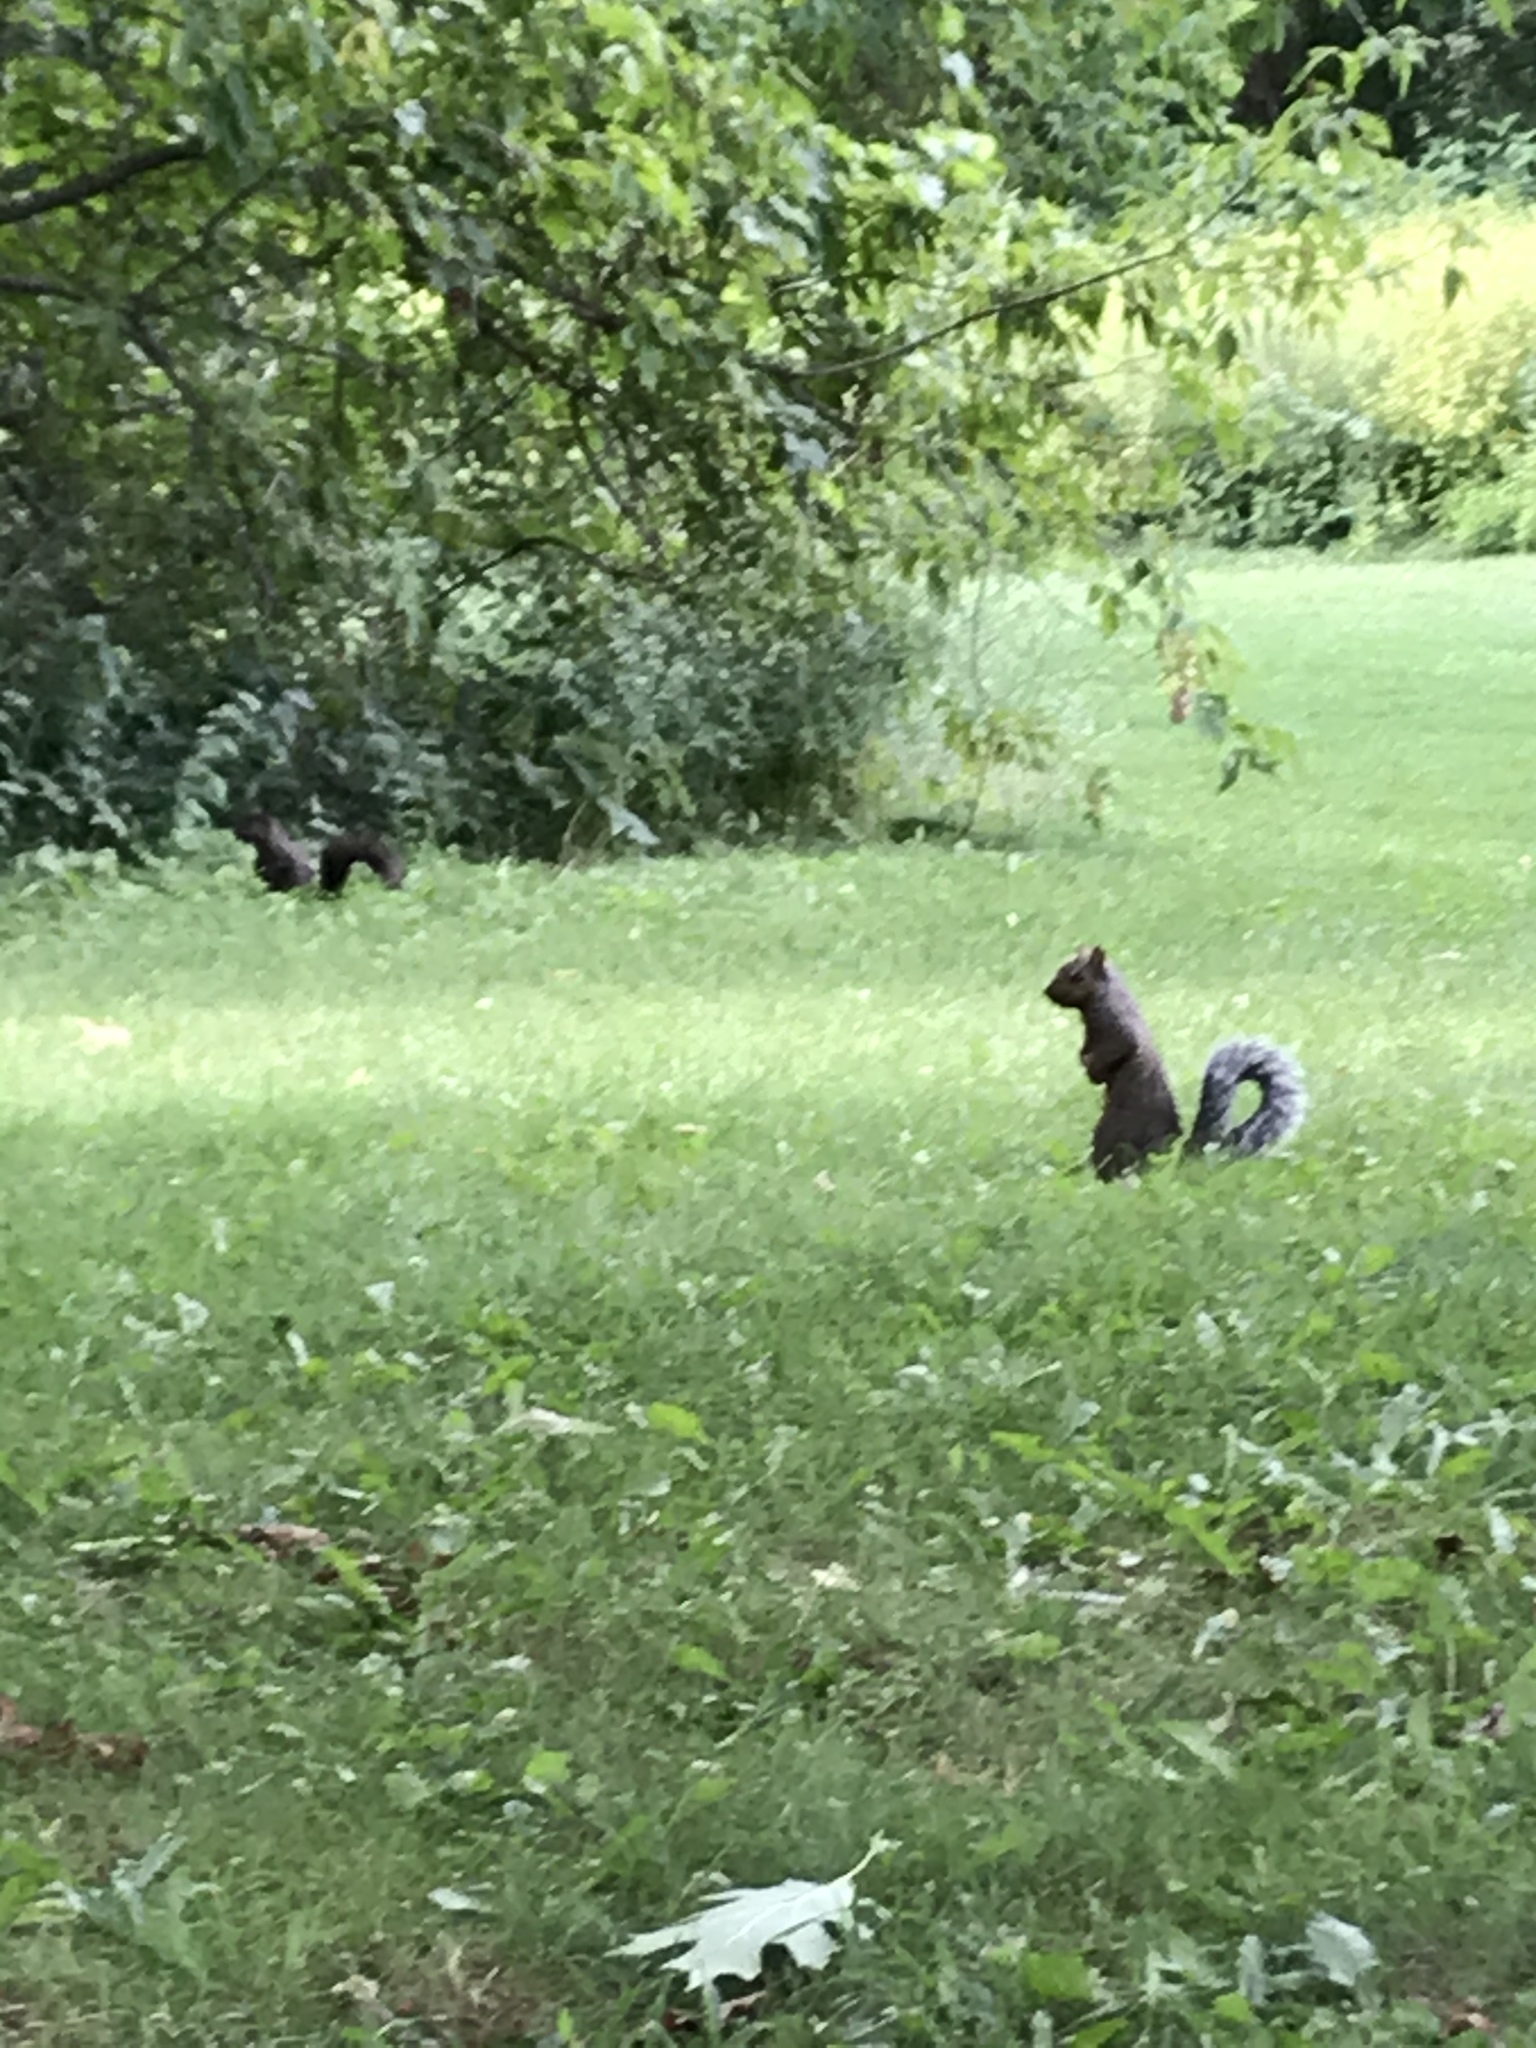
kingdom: Animalia
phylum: Chordata
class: Mammalia
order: Rodentia
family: Sciuridae
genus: Sciurus
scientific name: Sciurus carolinensis
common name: Eastern gray squirrel
